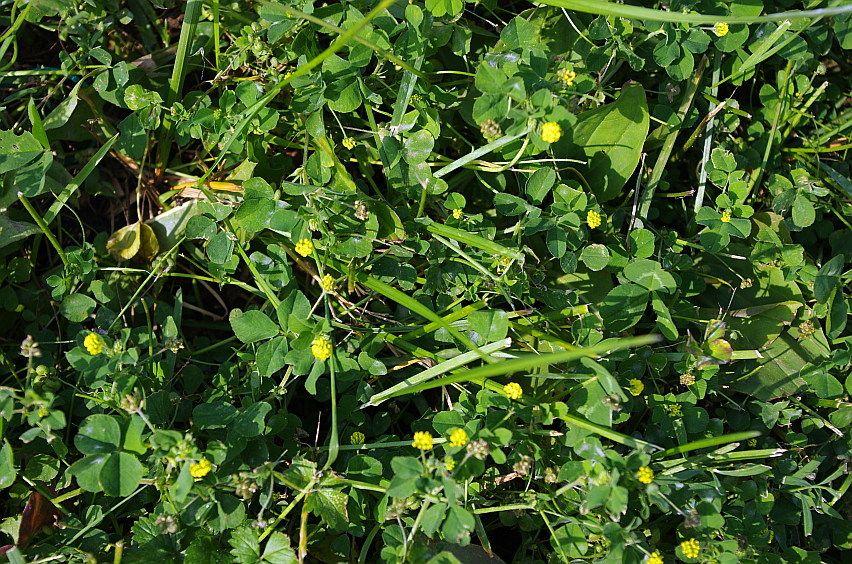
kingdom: Plantae
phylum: Tracheophyta
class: Magnoliopsida
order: Fabales
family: Fabaceae
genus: Medicago
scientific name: Medicago lupulina
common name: Black medick
